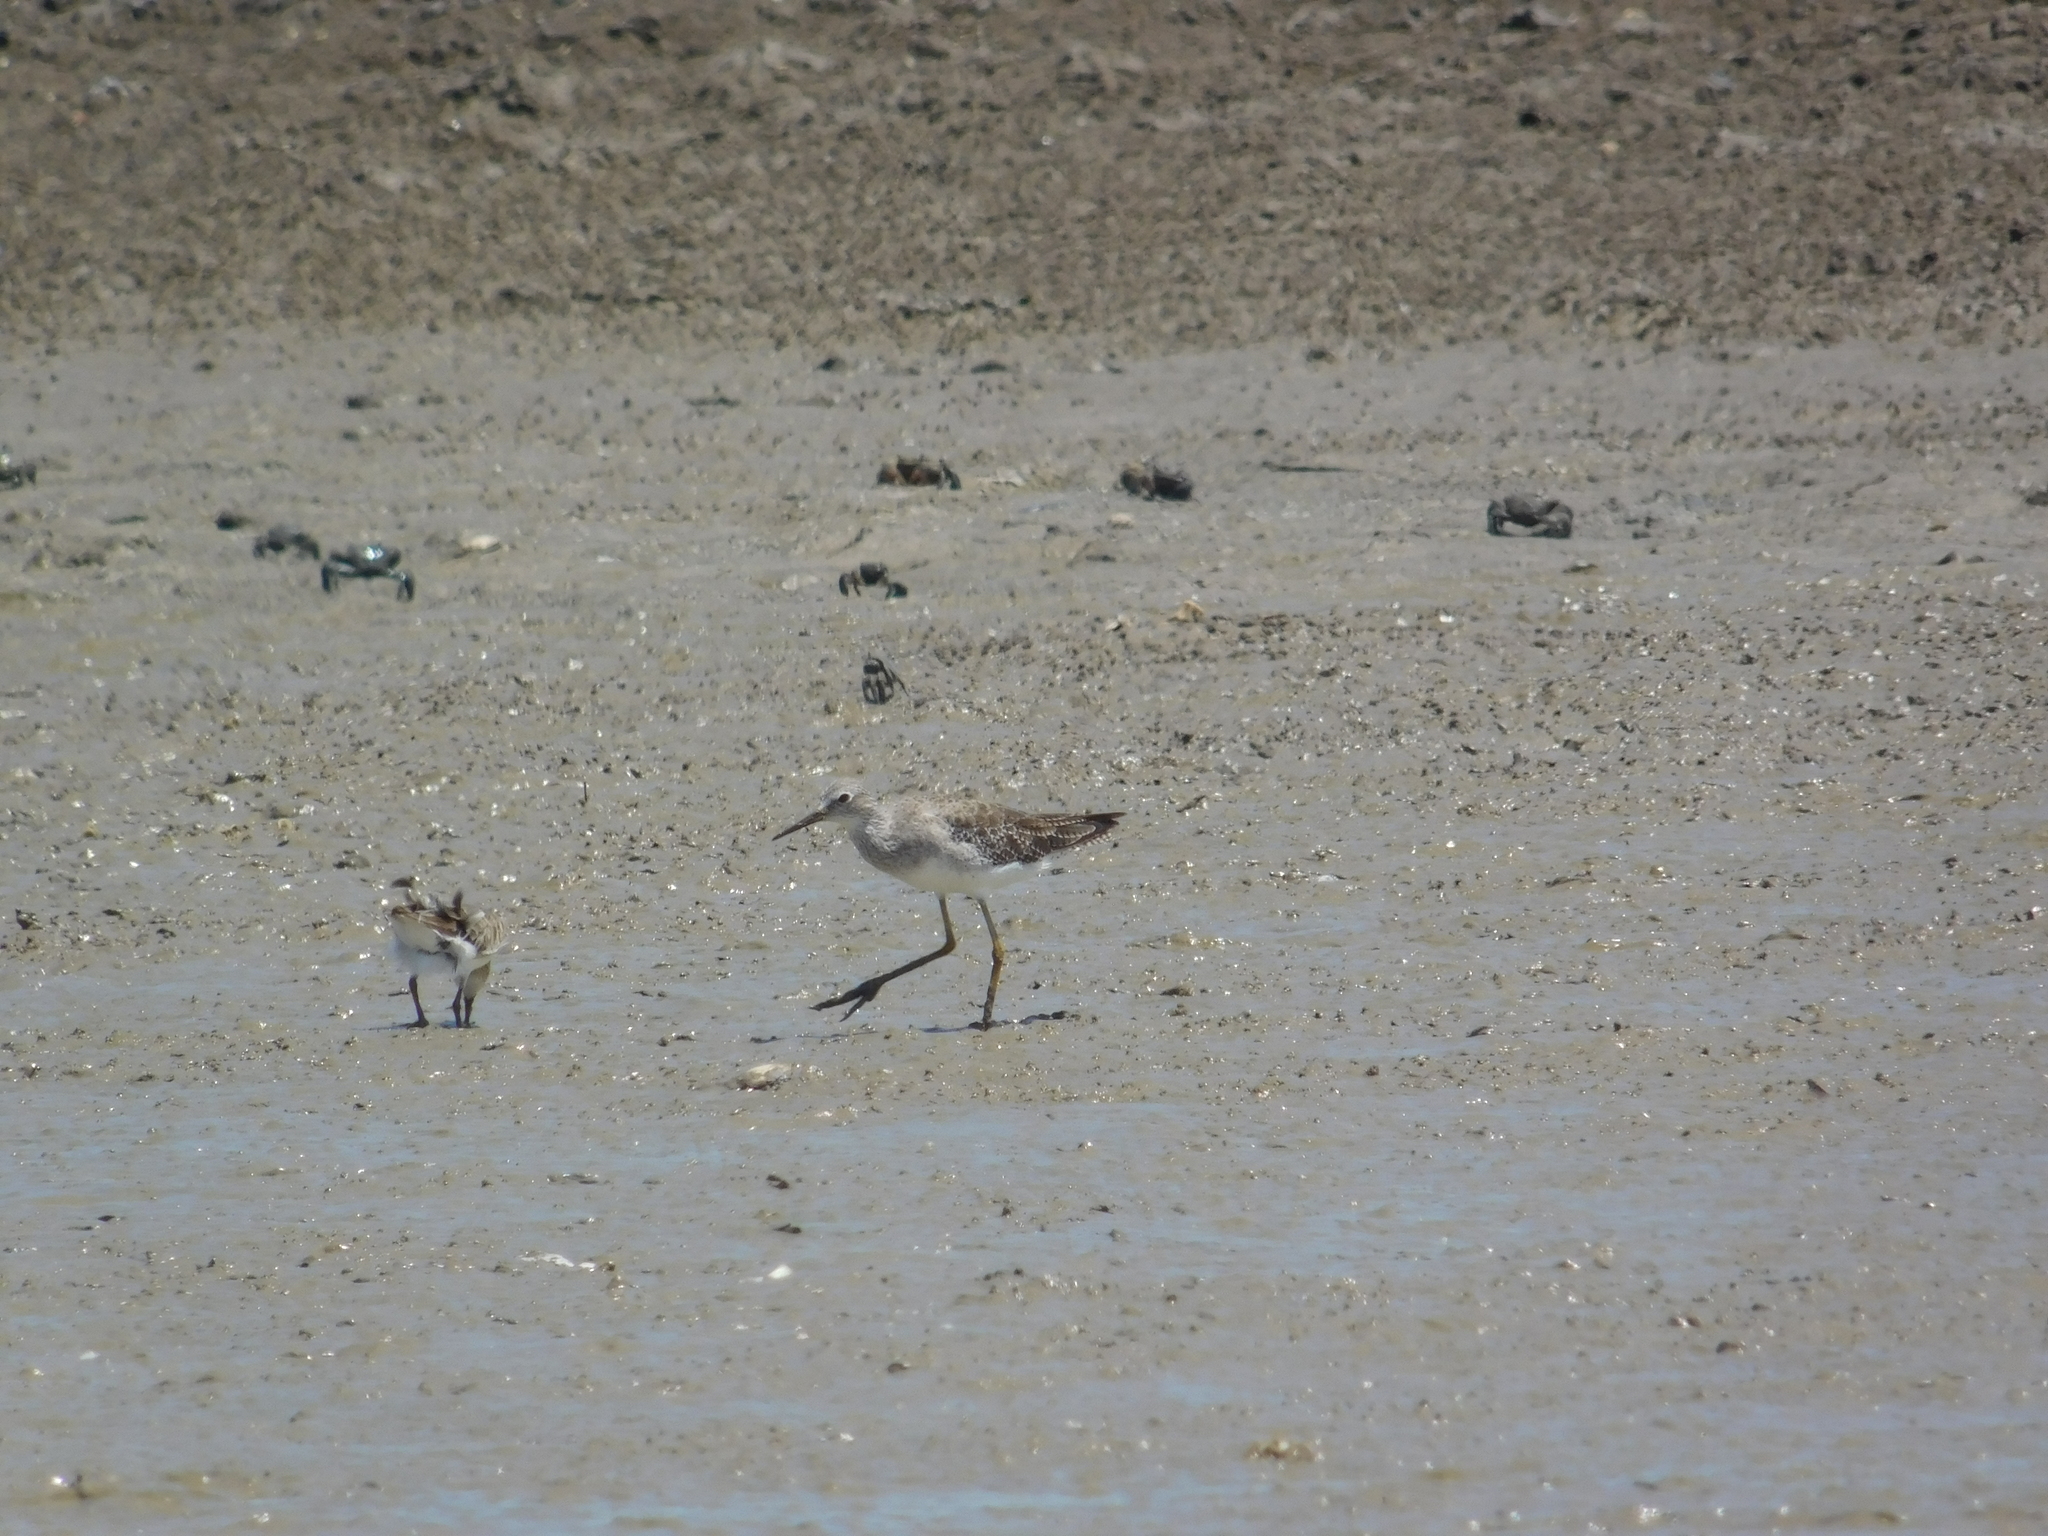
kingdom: Animalia
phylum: Chordata
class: Aves
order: Charadriiformes
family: Scolopacidae
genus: Tringa
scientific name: Tringa flavipes
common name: Lesser yellowlegs
